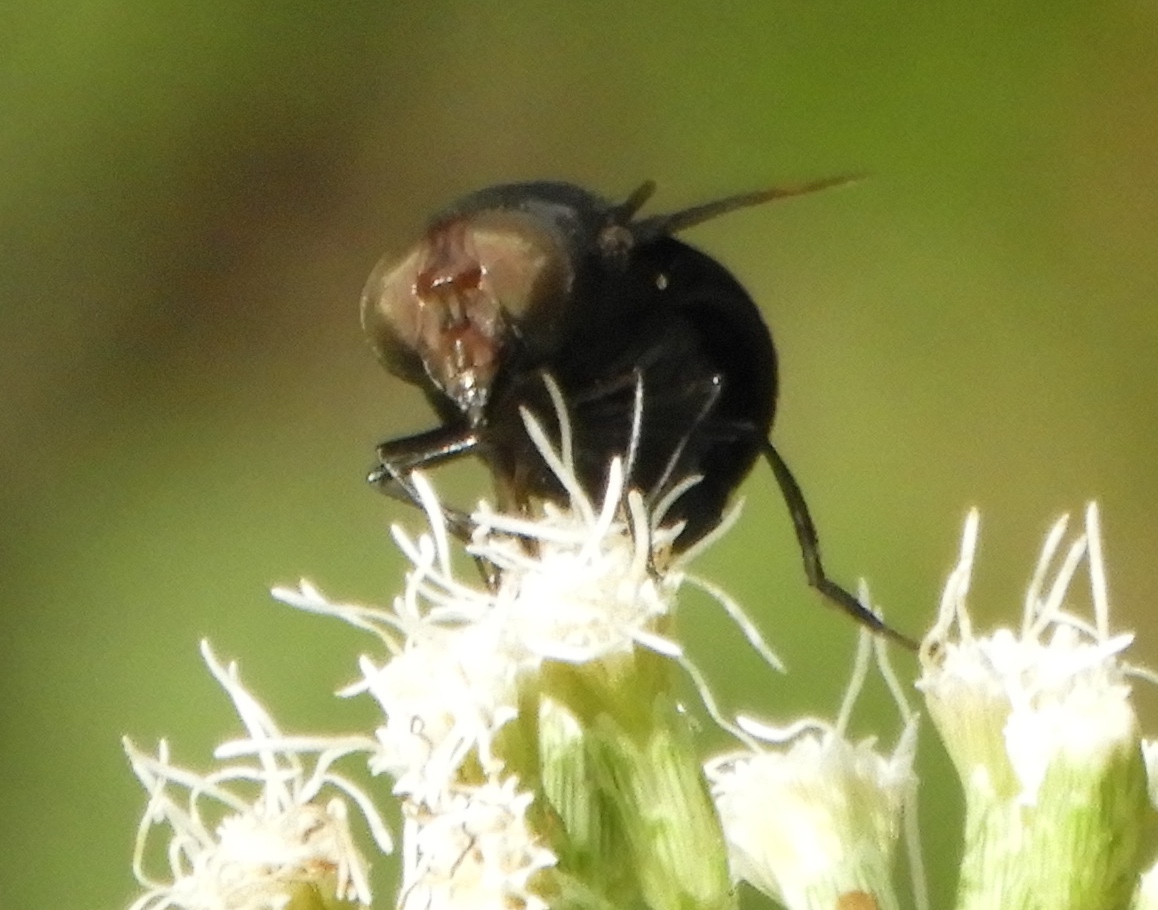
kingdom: Animalia
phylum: Arthropoda
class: Insecta
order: Diptera
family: Syrphidae
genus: Copestylum
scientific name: Copestylum mexicanum
